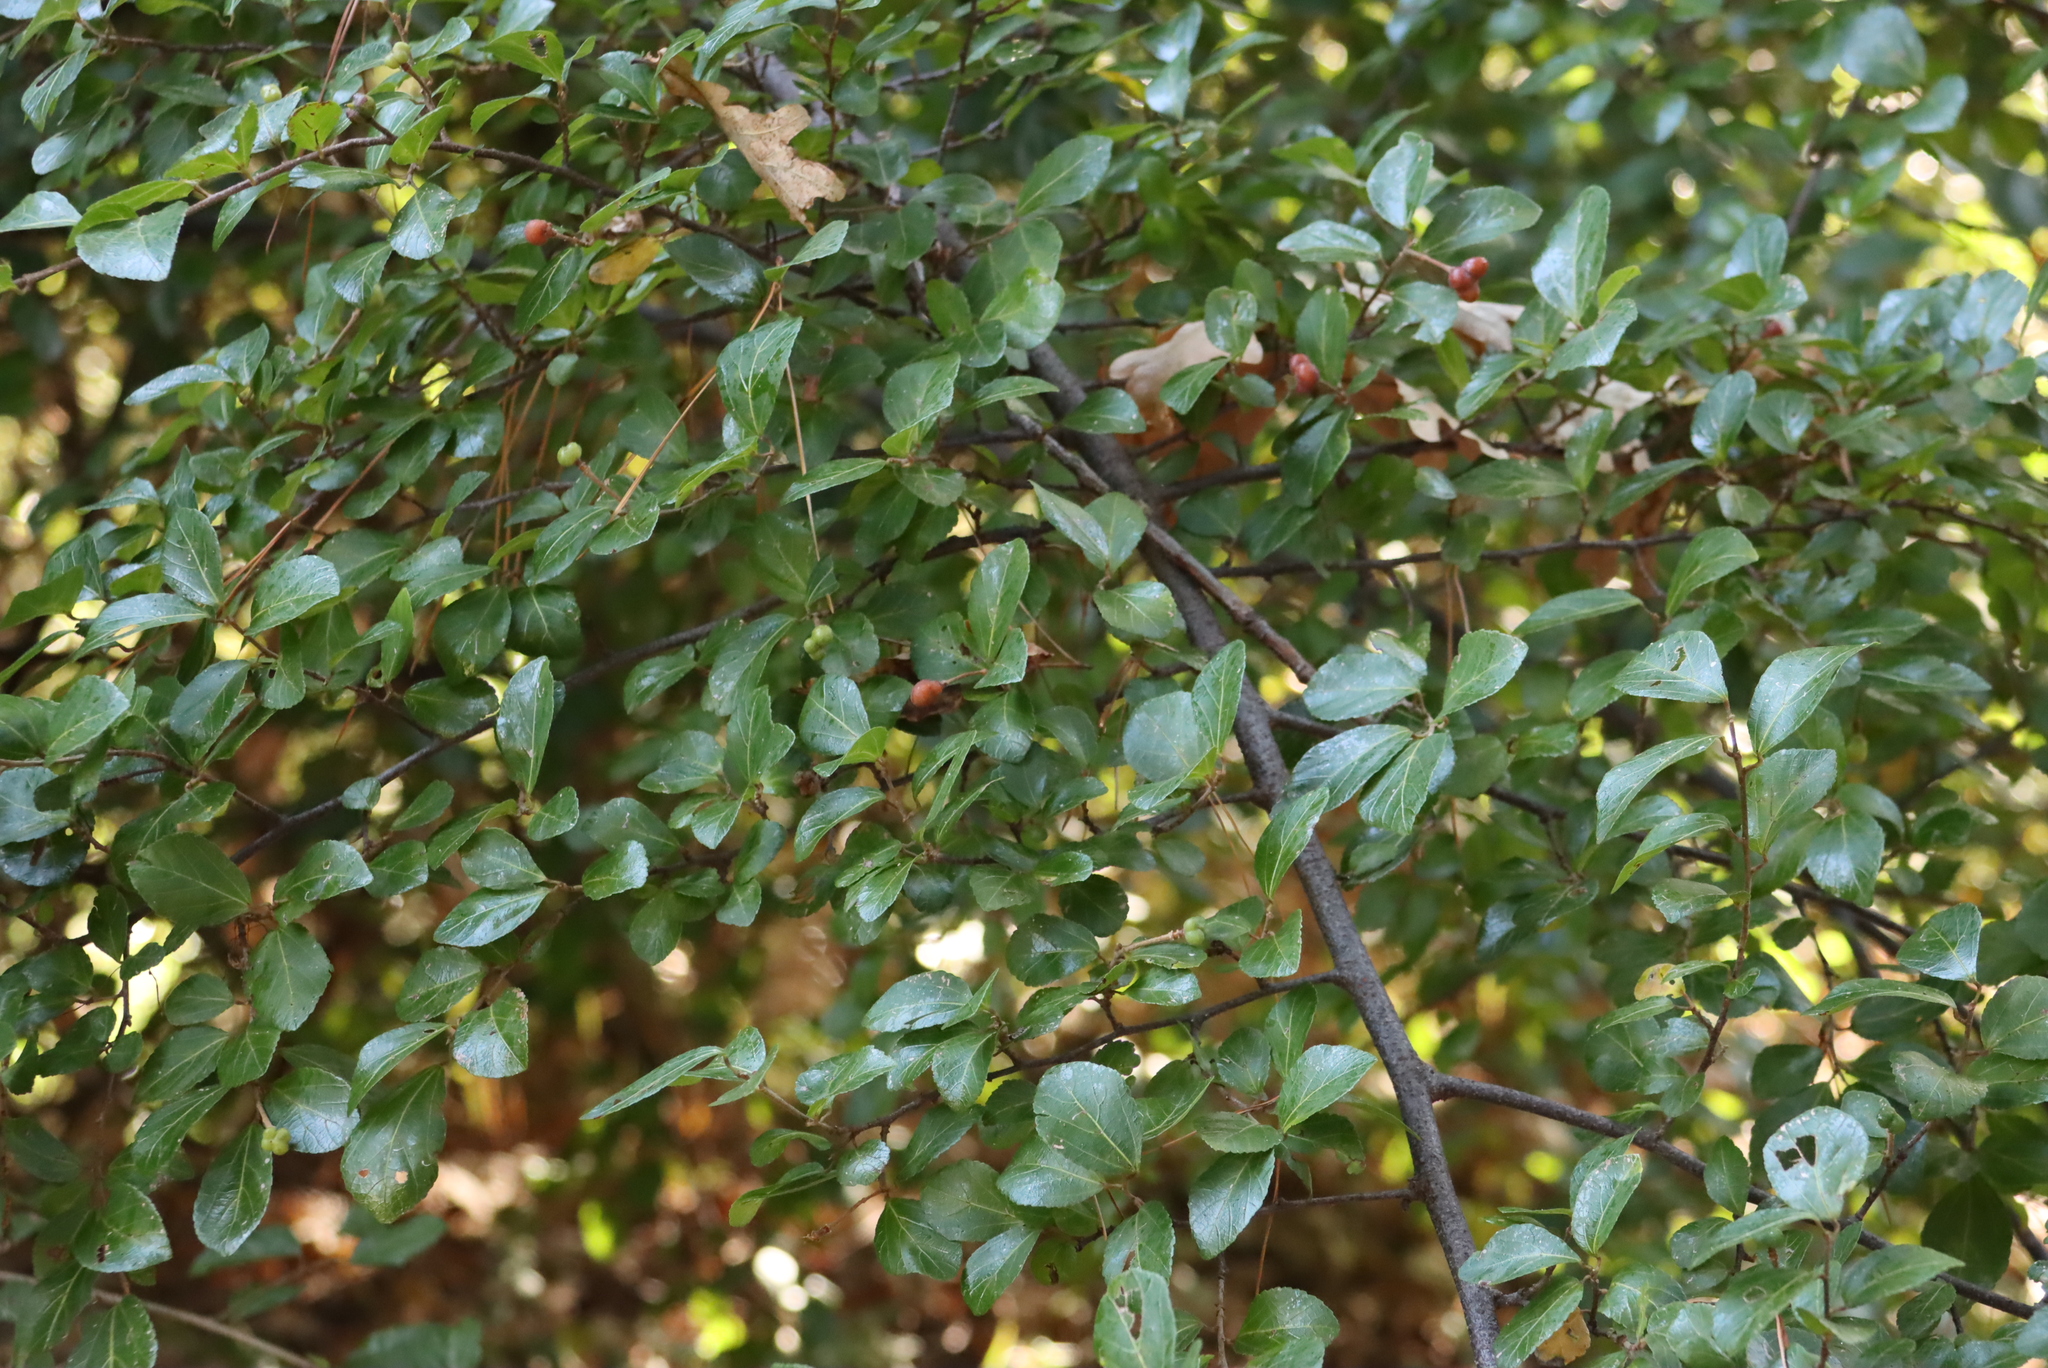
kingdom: Plantae
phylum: Tracheophyta
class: Magnoliopsida
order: Malvales
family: Malvaceae
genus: Grewia
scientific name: Grewia occidentalis
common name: Crossberry
